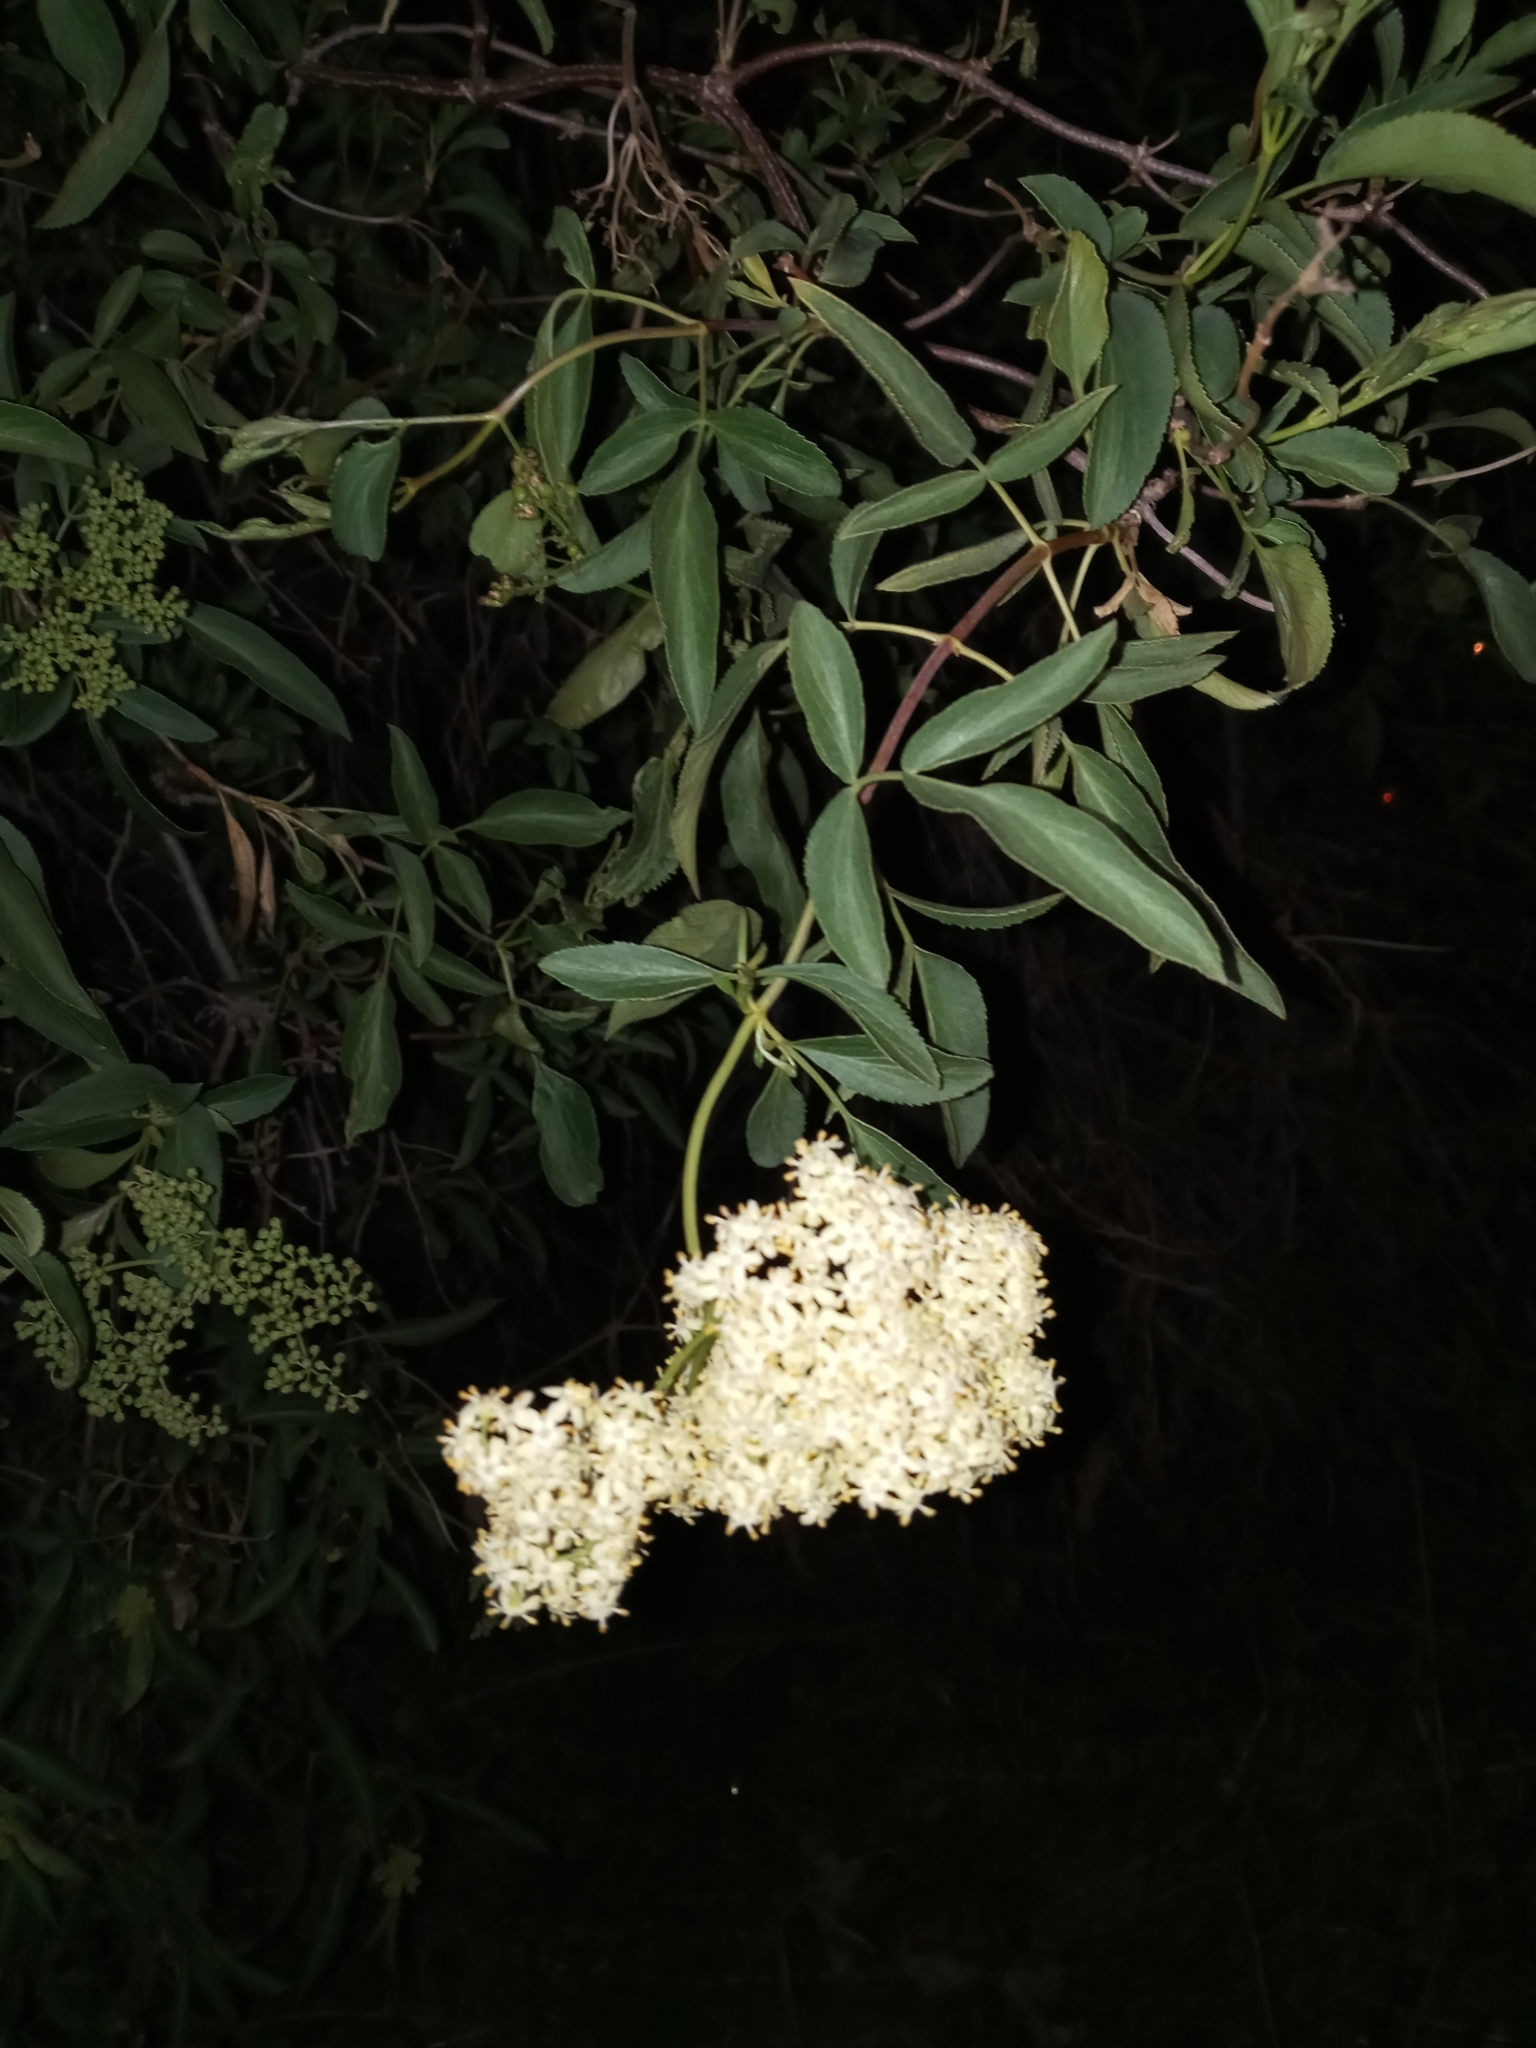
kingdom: Plantae
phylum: Tracheophyta
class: Magnoliopsida
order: Dipsacales
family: Viburnaceae
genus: Sambucus
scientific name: Sambucus cerulea
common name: Blue elder
